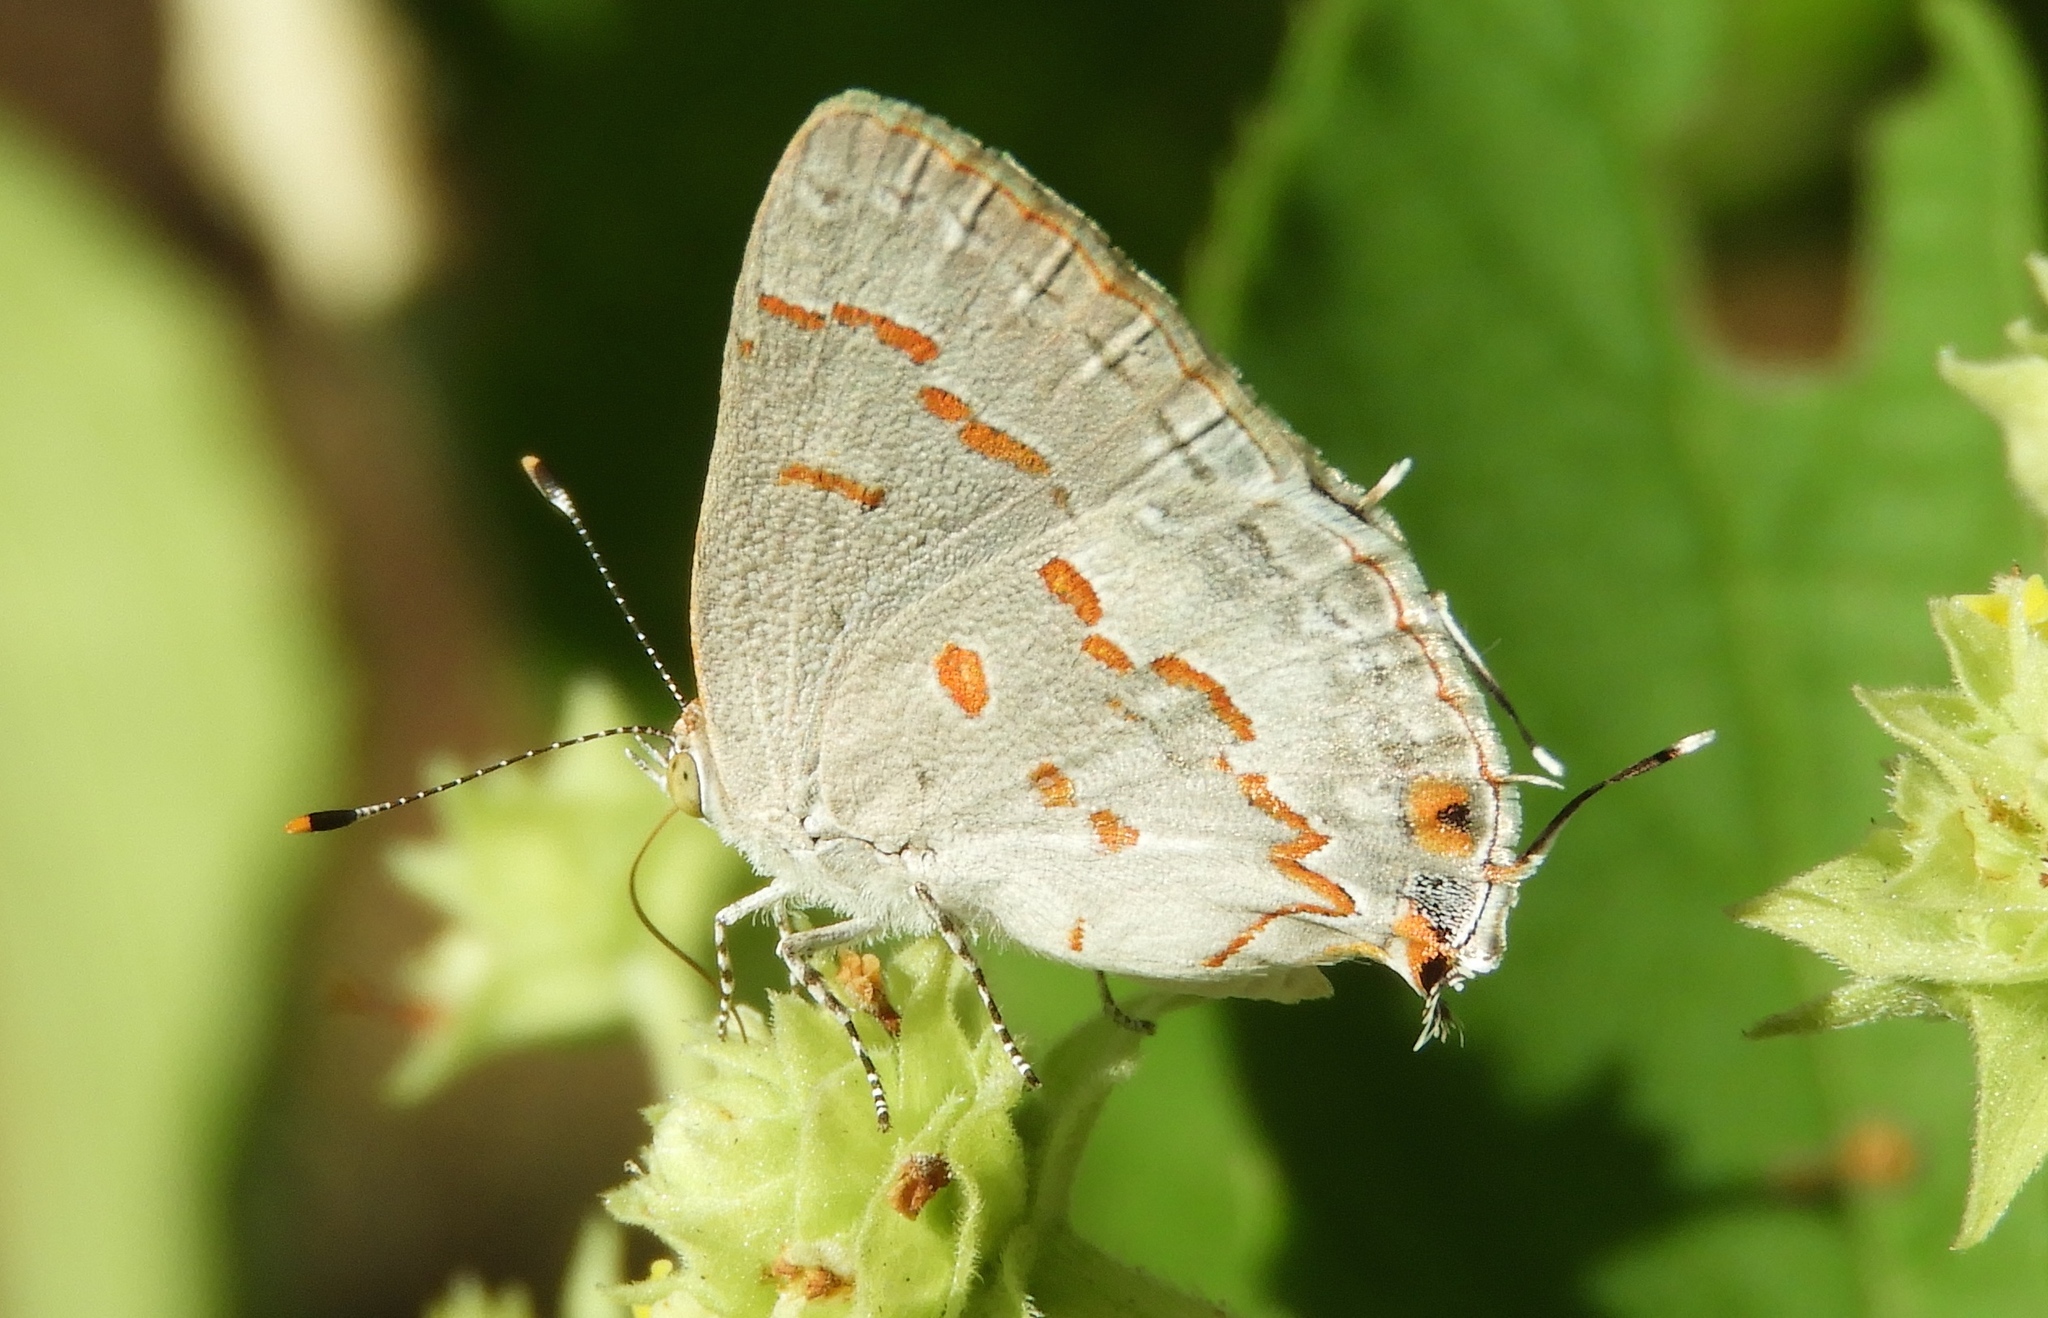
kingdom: Animalia
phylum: Arthropoda
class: Insecta
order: Lepidoptera
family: Lycaenidae
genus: Ministrymon
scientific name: Ministrymon clytie
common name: Clytie ministreak
